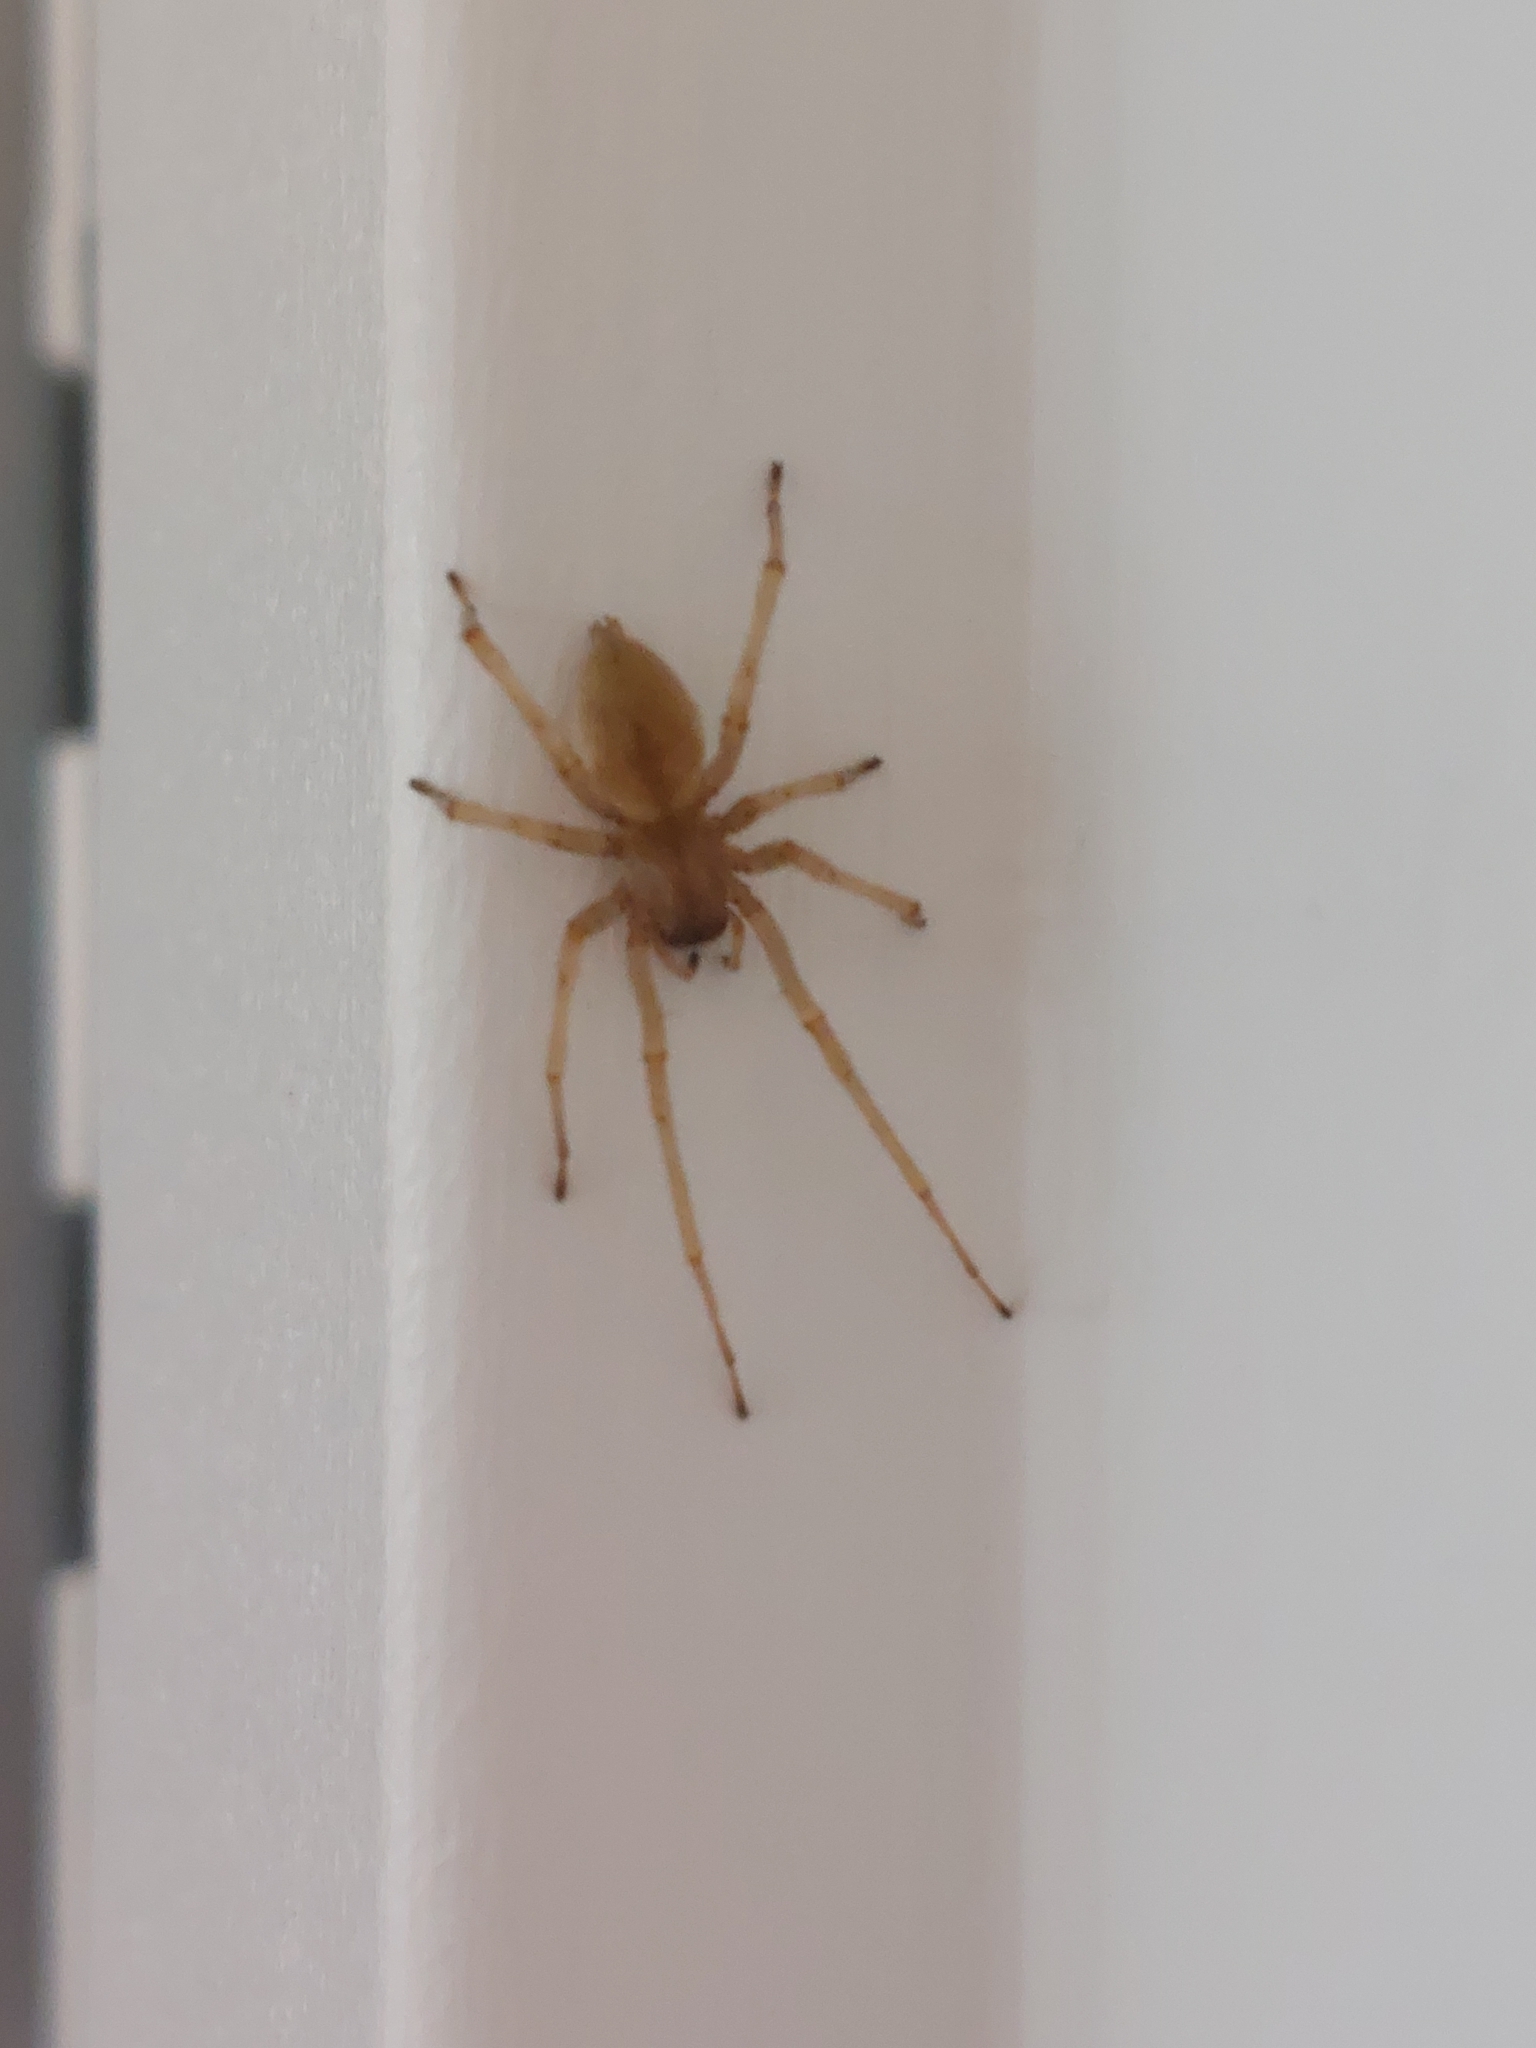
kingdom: Animalia
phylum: Arthropoda
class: Arachnida
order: Araneae
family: Cheiracanthiidae
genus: Cheiracanthium
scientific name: Cheiracanthium mildei
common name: Northern yellow sac spider
